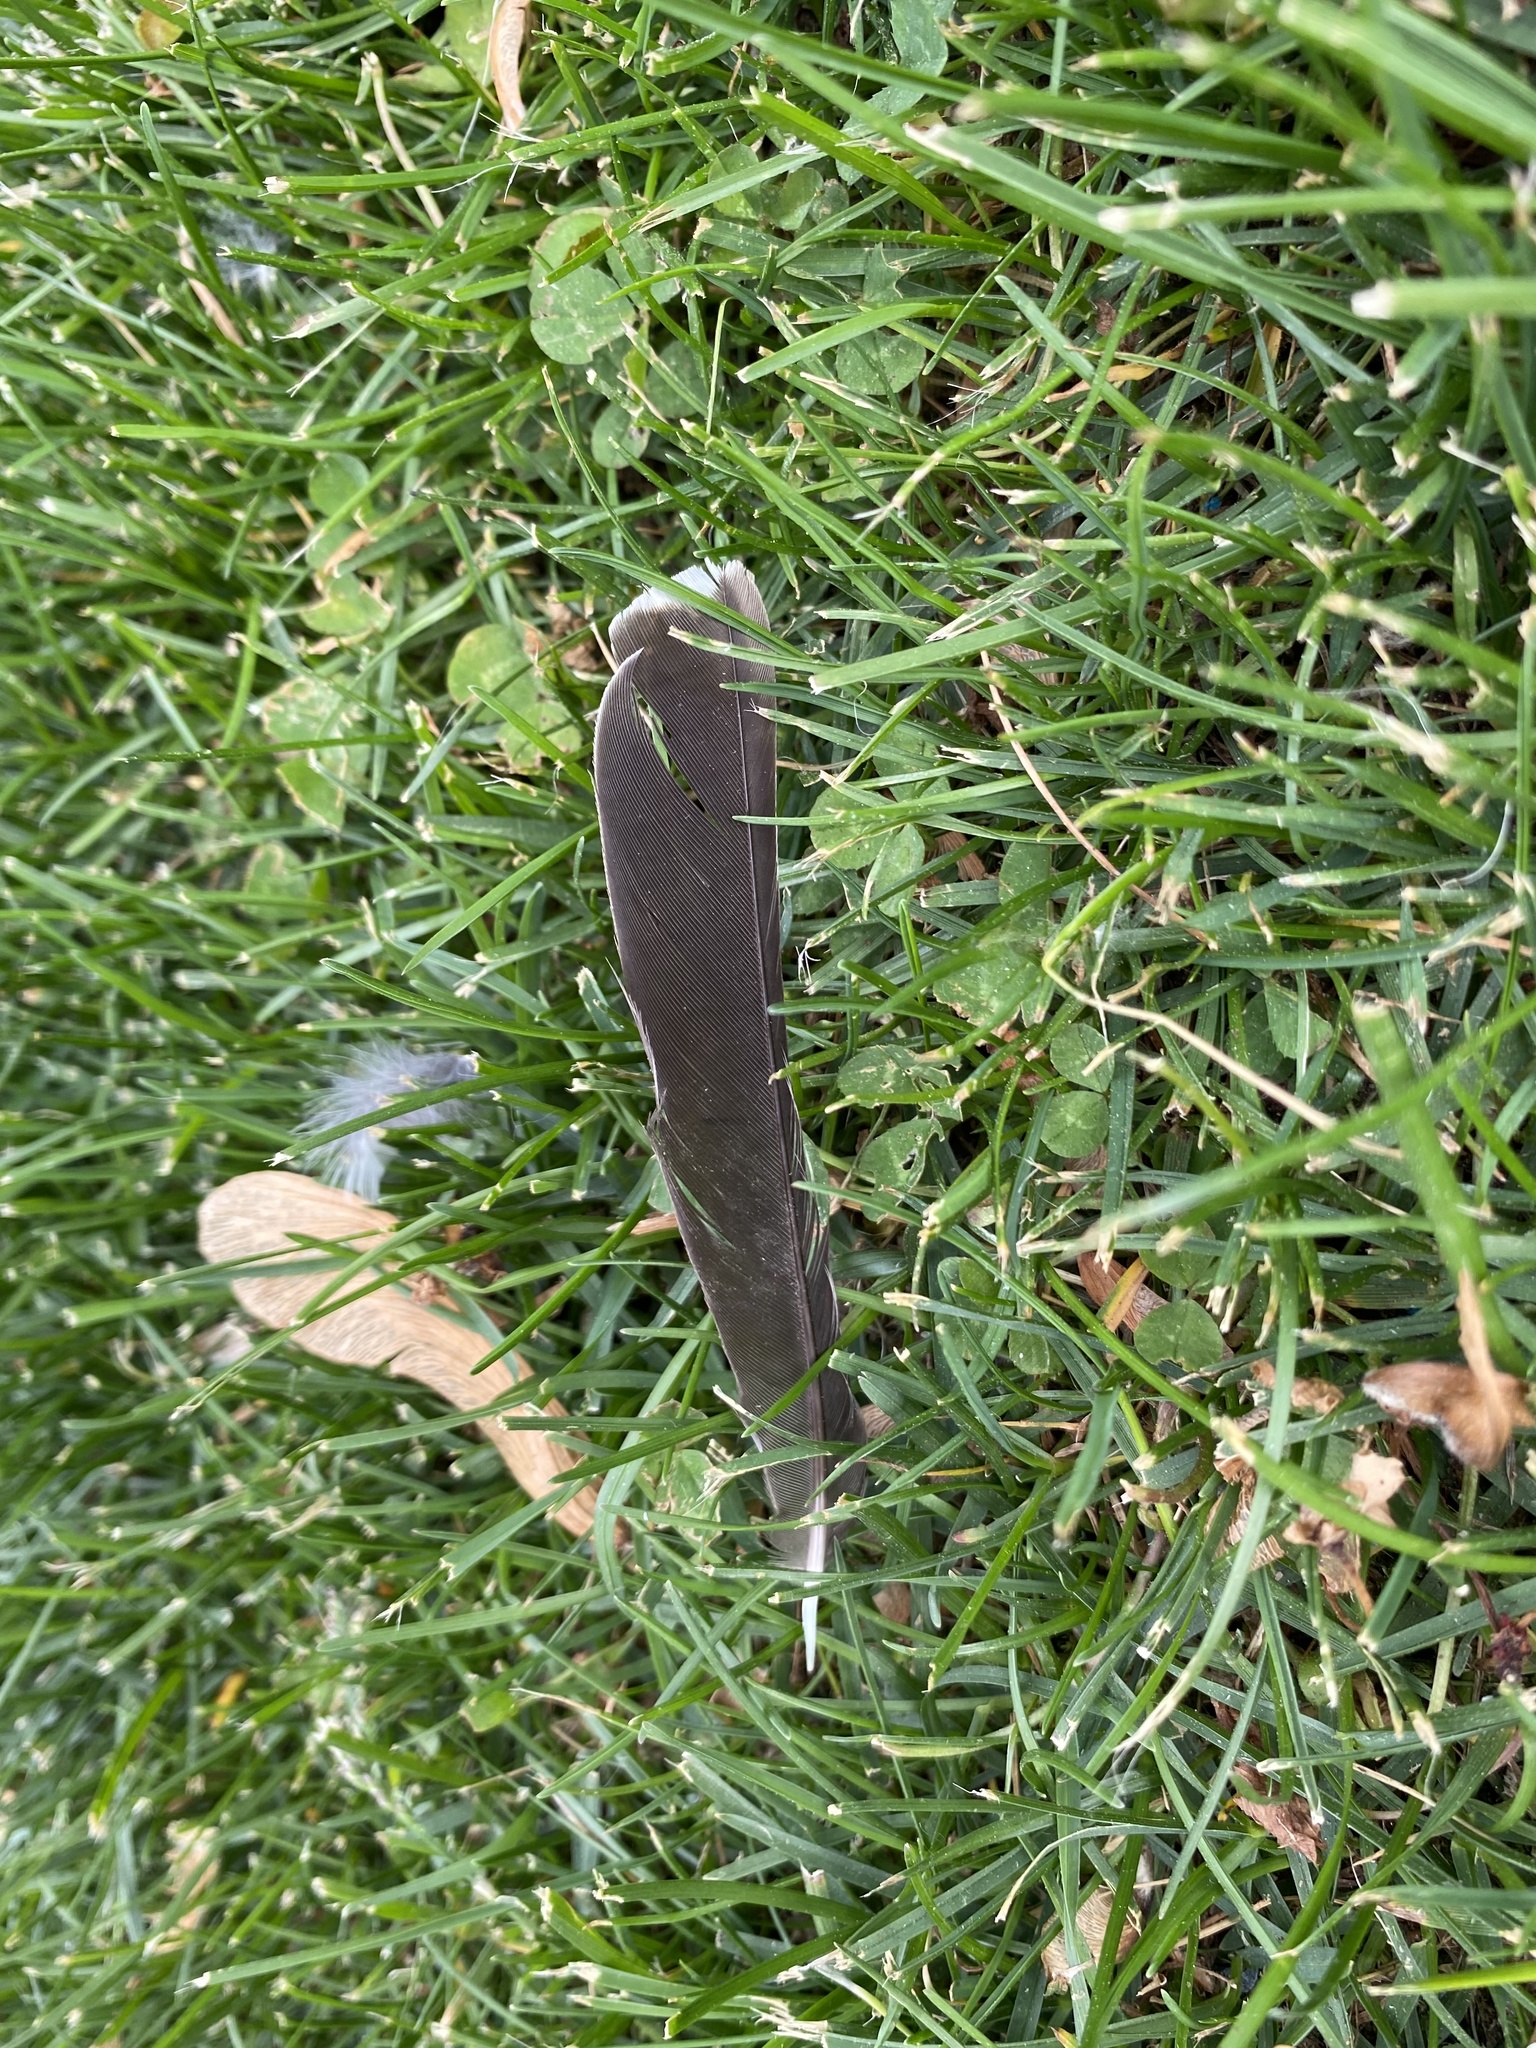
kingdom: Animalia
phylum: Chordata
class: Aves
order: Passeriformes
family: Turdidae
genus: Turdus
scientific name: Turdus migratorius
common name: American robin
